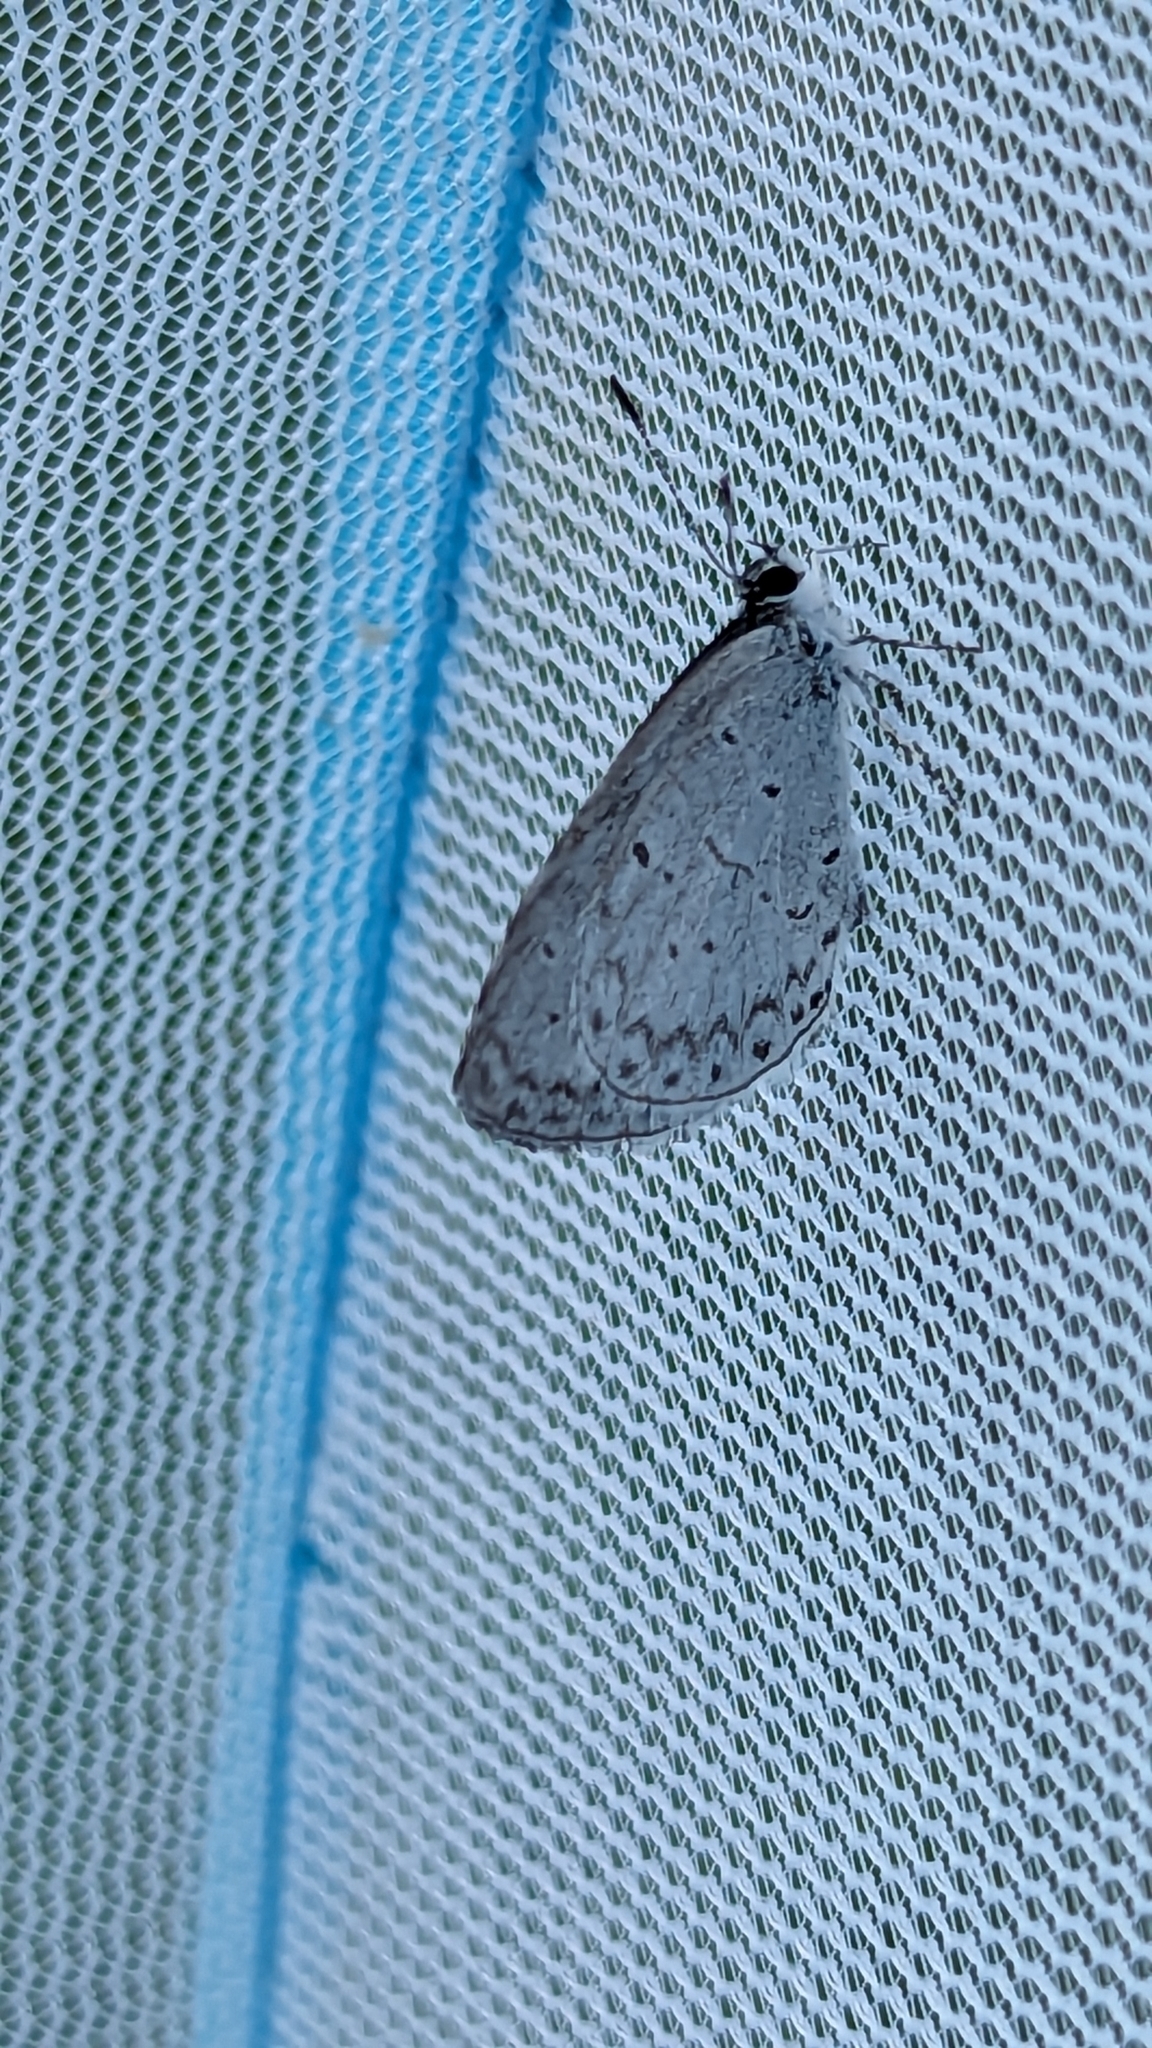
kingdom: Animalia
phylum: Arthropoda
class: Insecta
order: Lepidoptera
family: Lycaenidae
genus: Cyaniris
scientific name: Cyaniris neglecta
